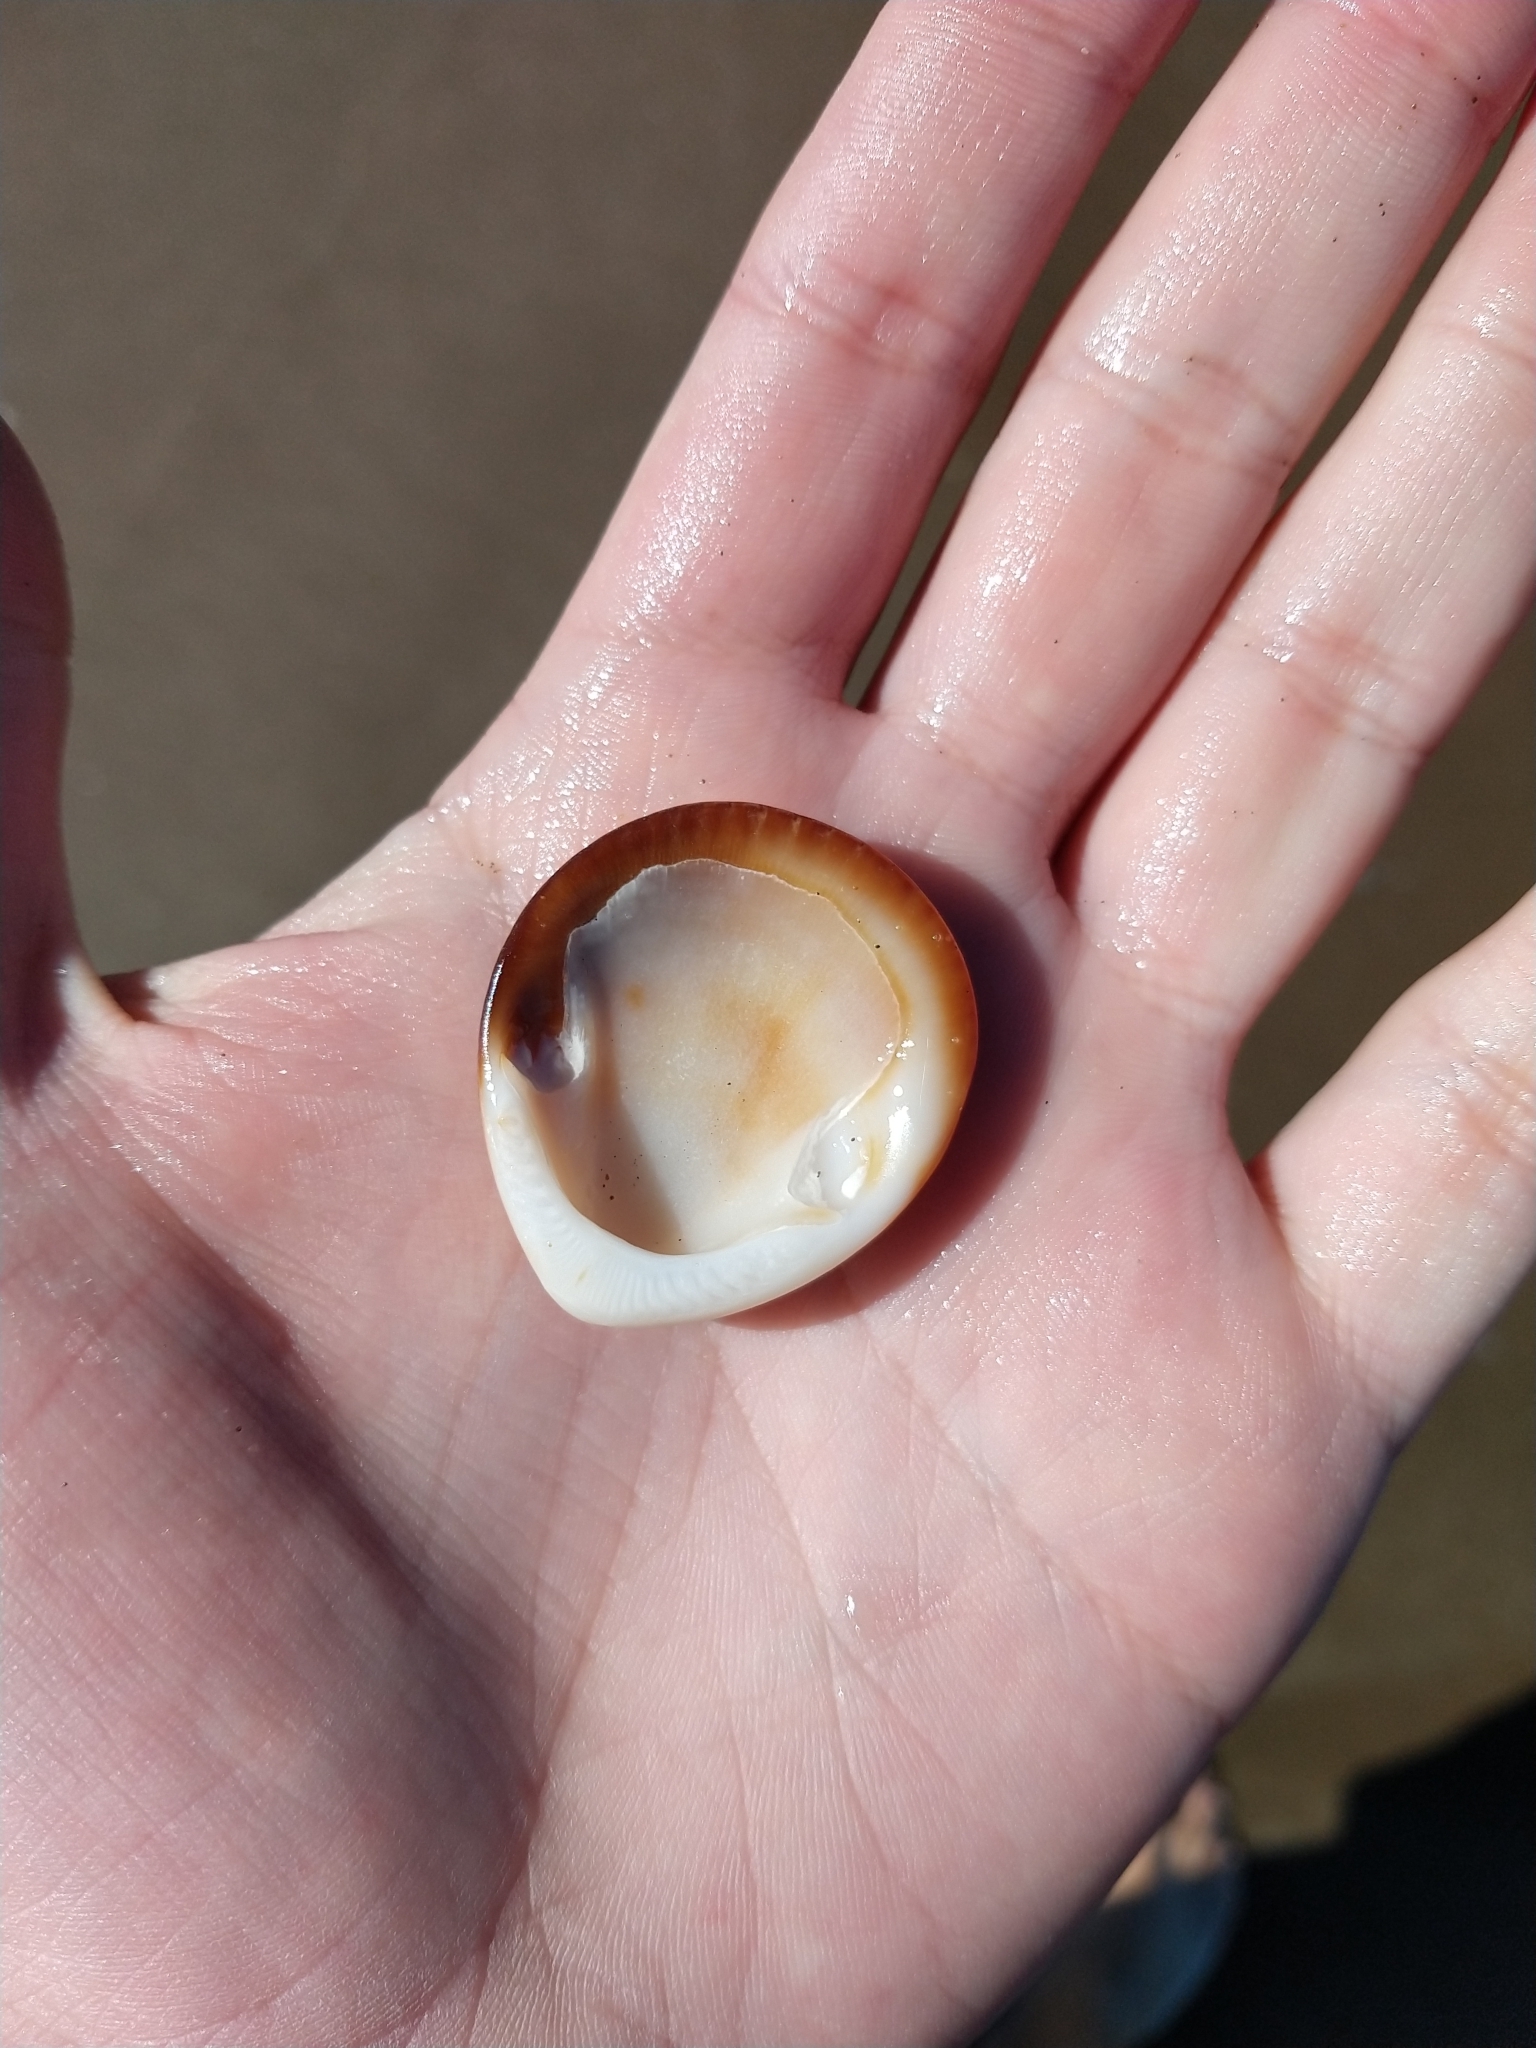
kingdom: Animalia
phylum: Mollusca
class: Bivalvia
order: Arcida
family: Glycymerididae
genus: Glycymeris
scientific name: Glycymeris longior
